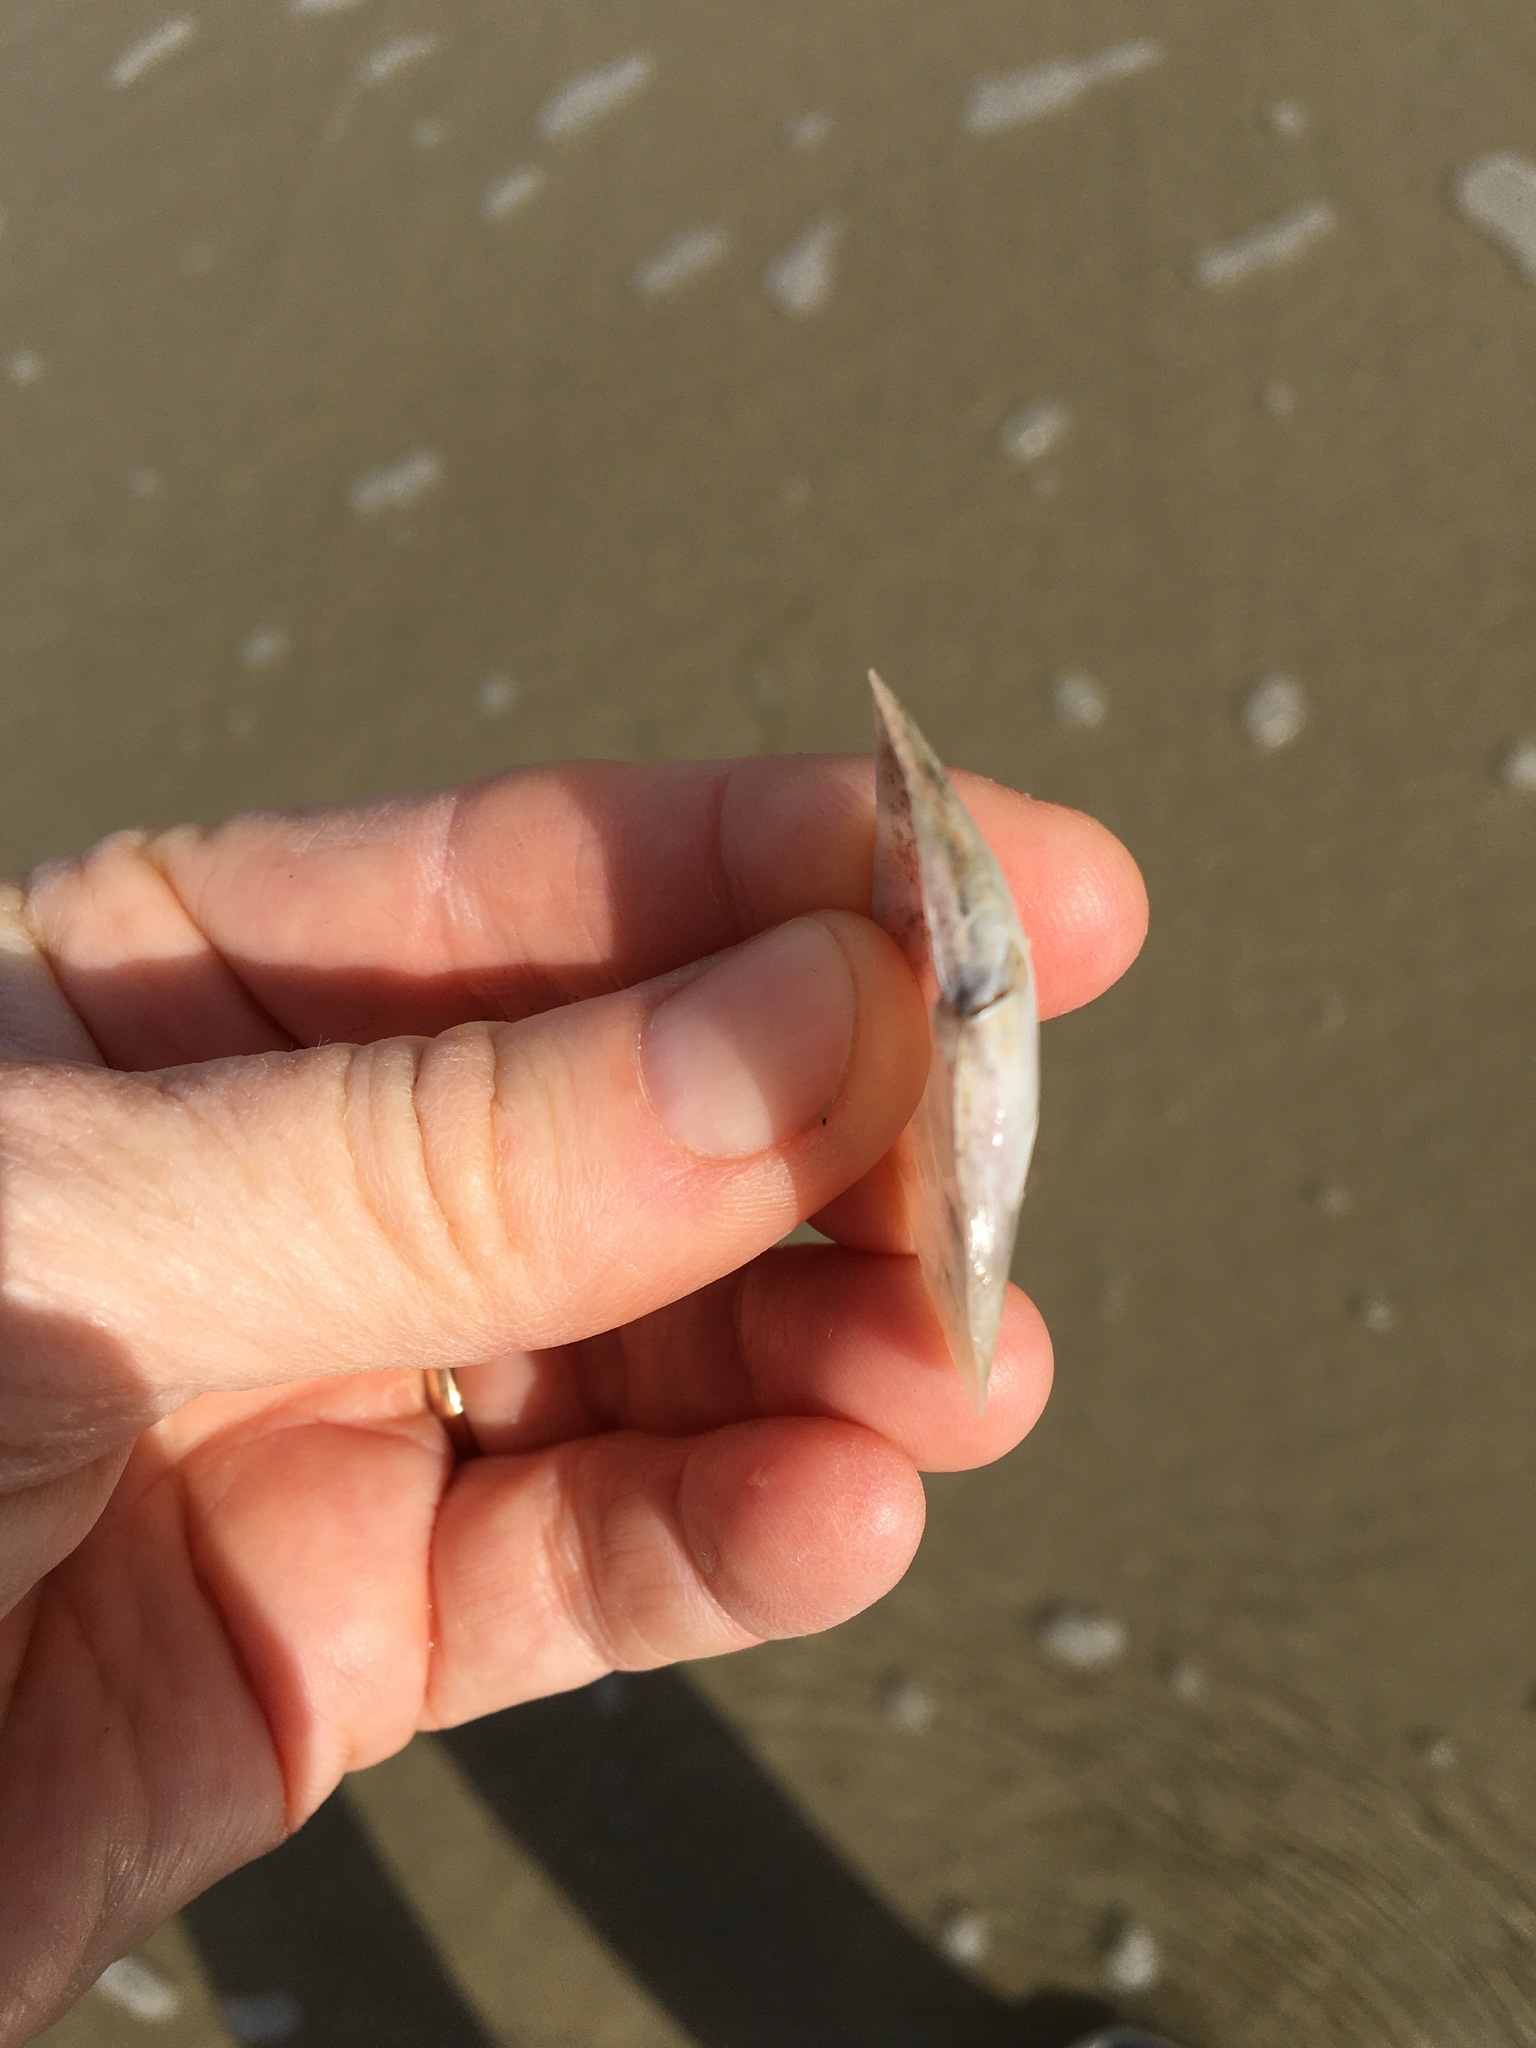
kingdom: Animalia
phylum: Mollusca
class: Bivalvia
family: Periplomatidae
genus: Periploma
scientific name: Periploma planiusculum
